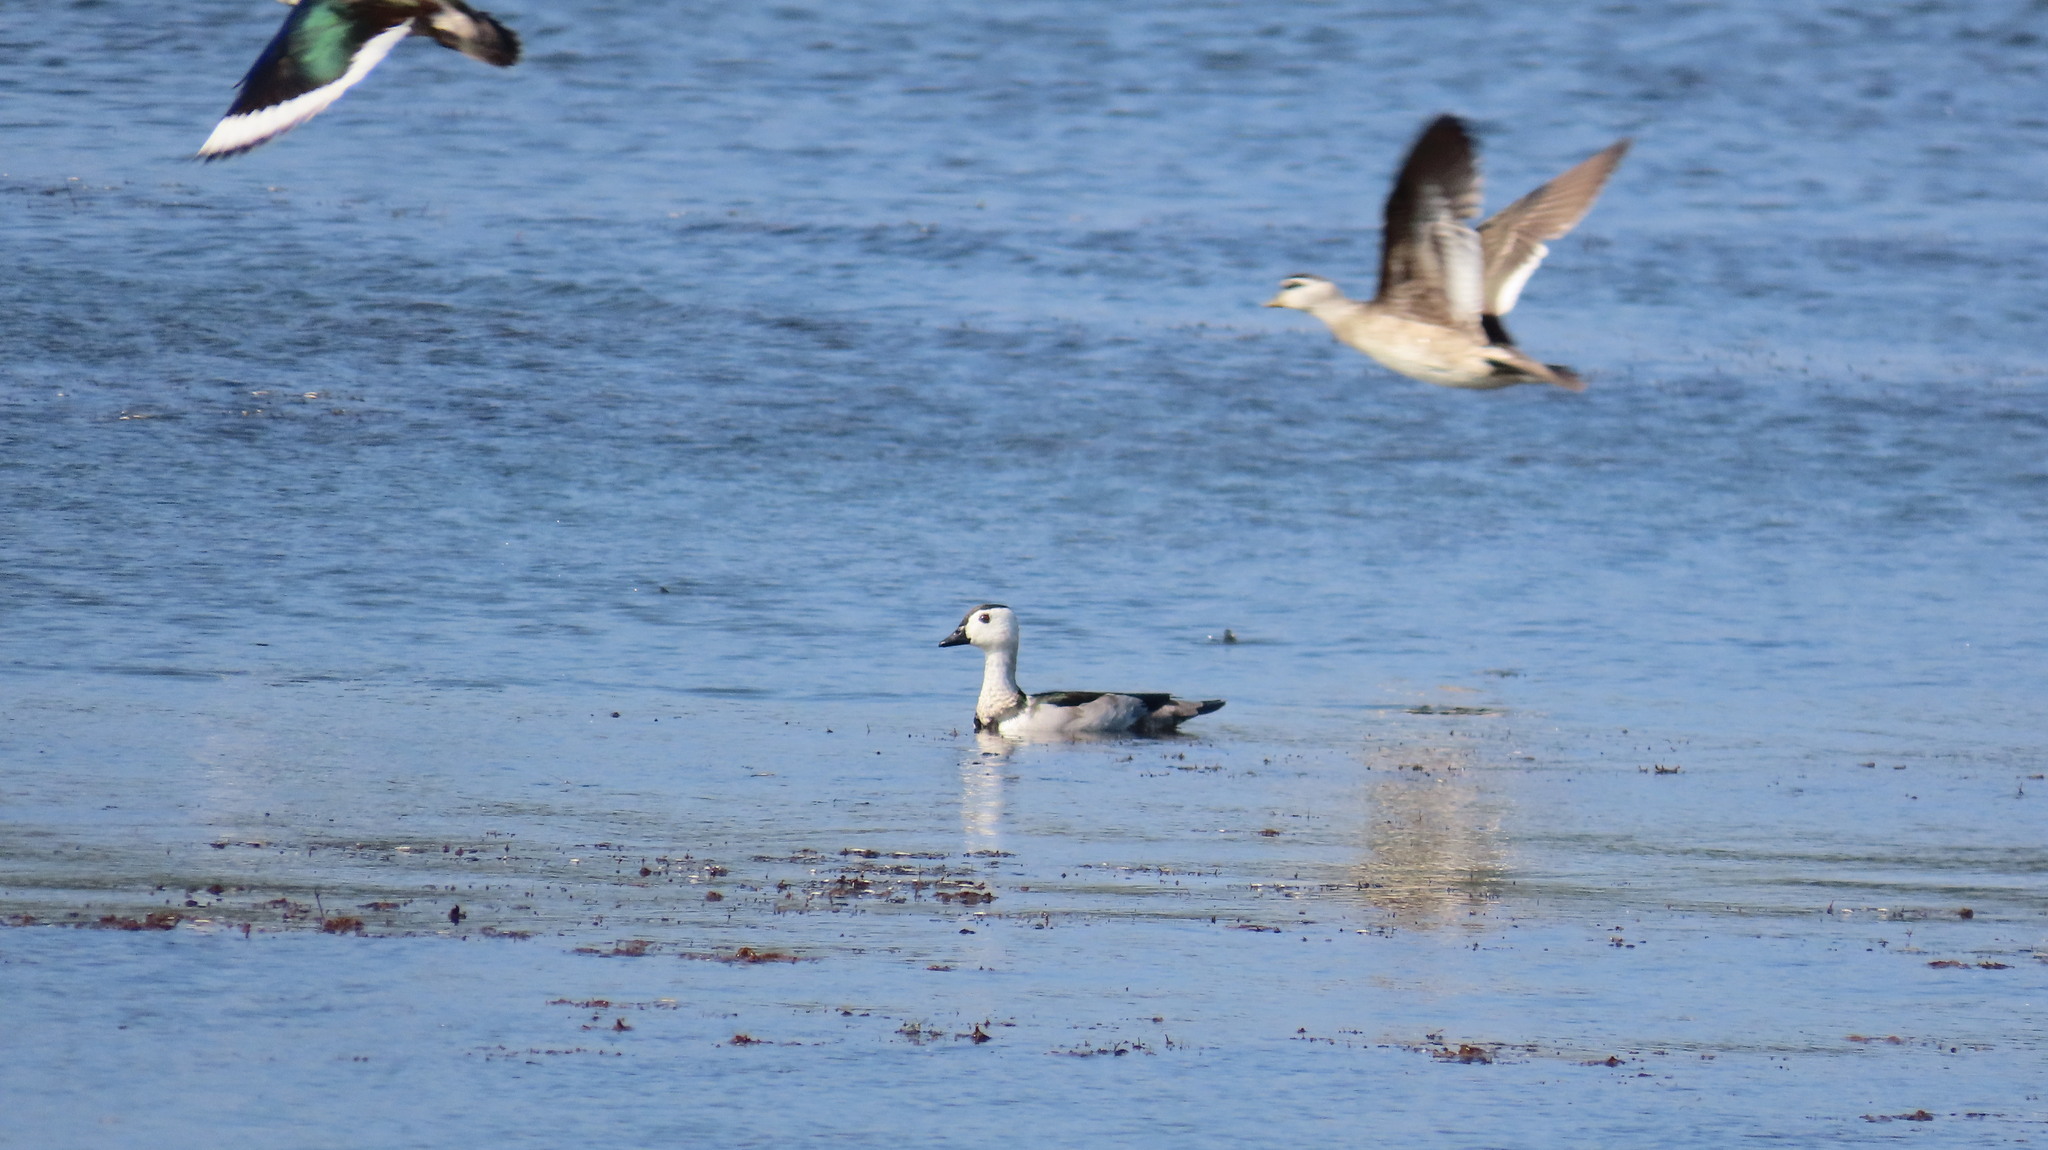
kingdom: Animalia
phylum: Chordata
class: Aves
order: Anseriformes
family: Anatidae
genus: Nettapus
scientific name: Nettapus coromandelianus
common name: Cotton pygmy-goose
